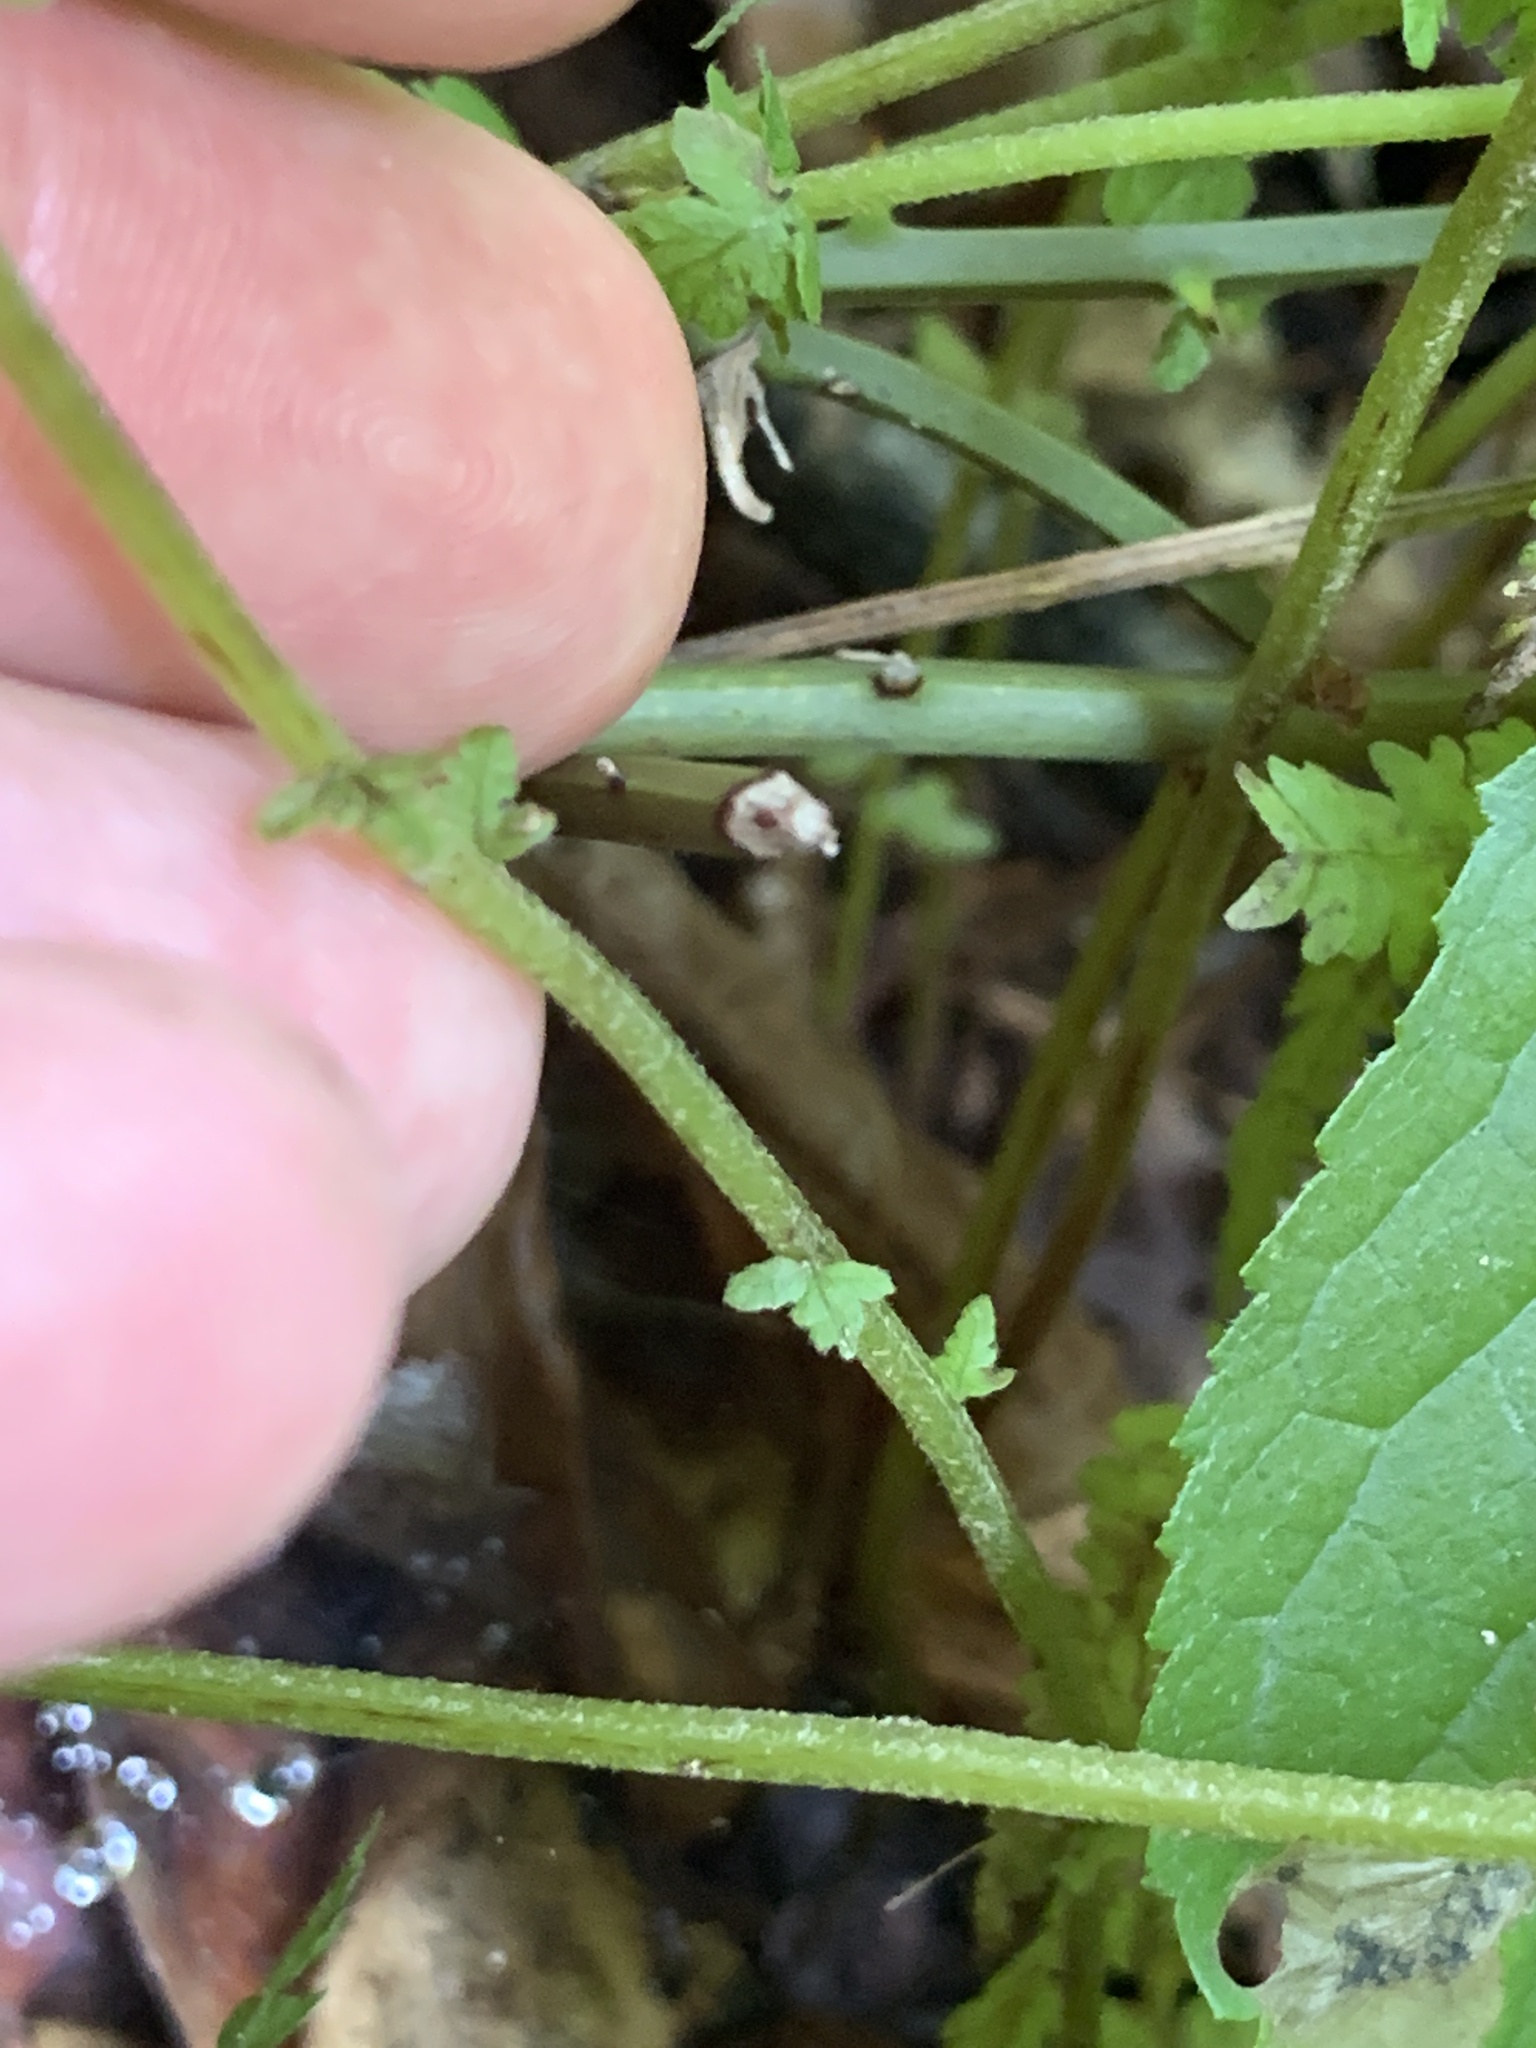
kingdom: Plantae
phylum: Tracheophyta
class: Polypodiopsida
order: Polypodiales
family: Thelypteridaceae
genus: Amauropelta
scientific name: Amauropelta noveboracensis
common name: New york fern
